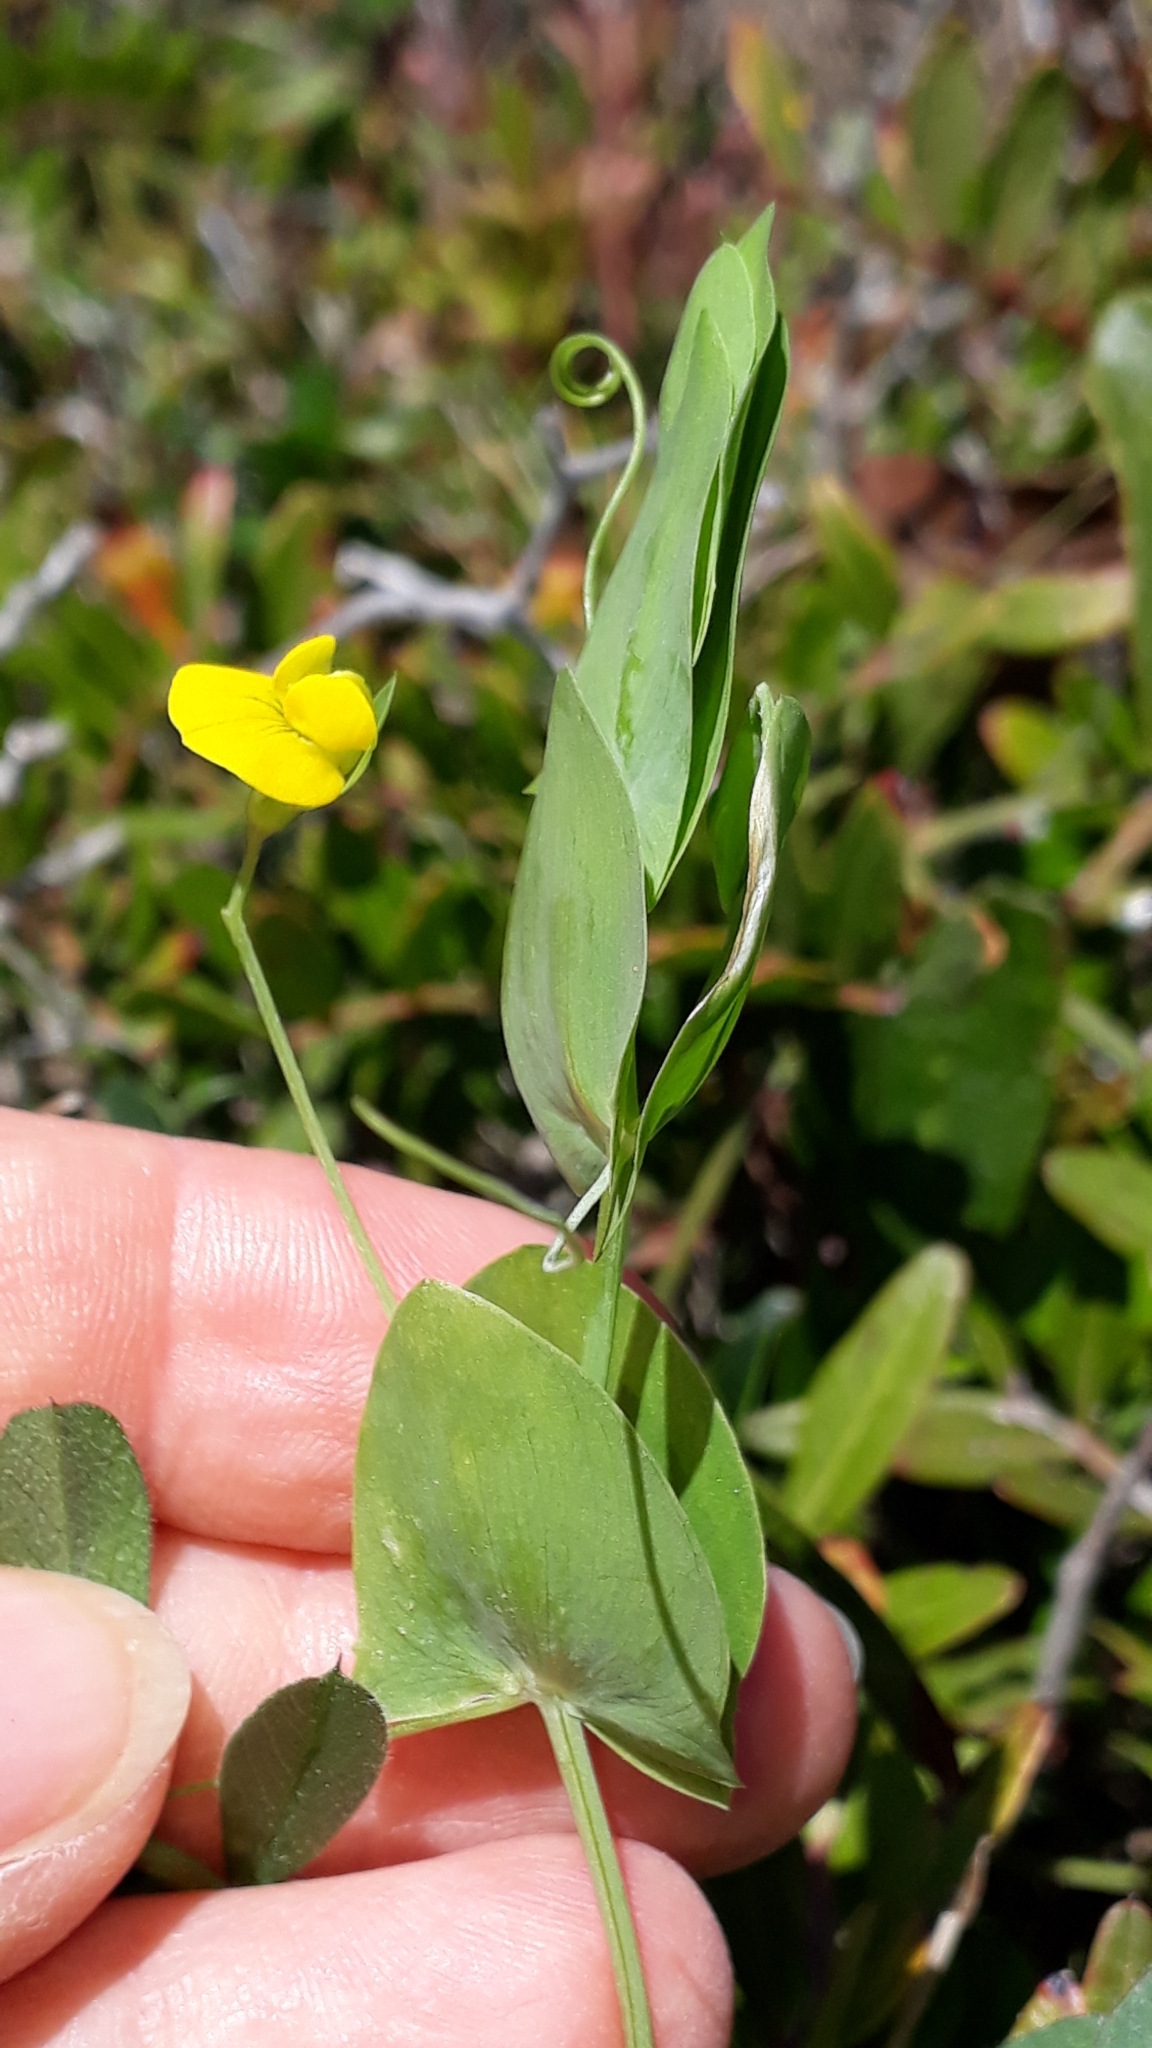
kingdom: Plantae
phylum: Tracheophyta
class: Magnoliopsida
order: Fabales
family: Fabaceae
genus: Lathyrus
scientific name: Lathyrus aphaca
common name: Yellow vetchling
